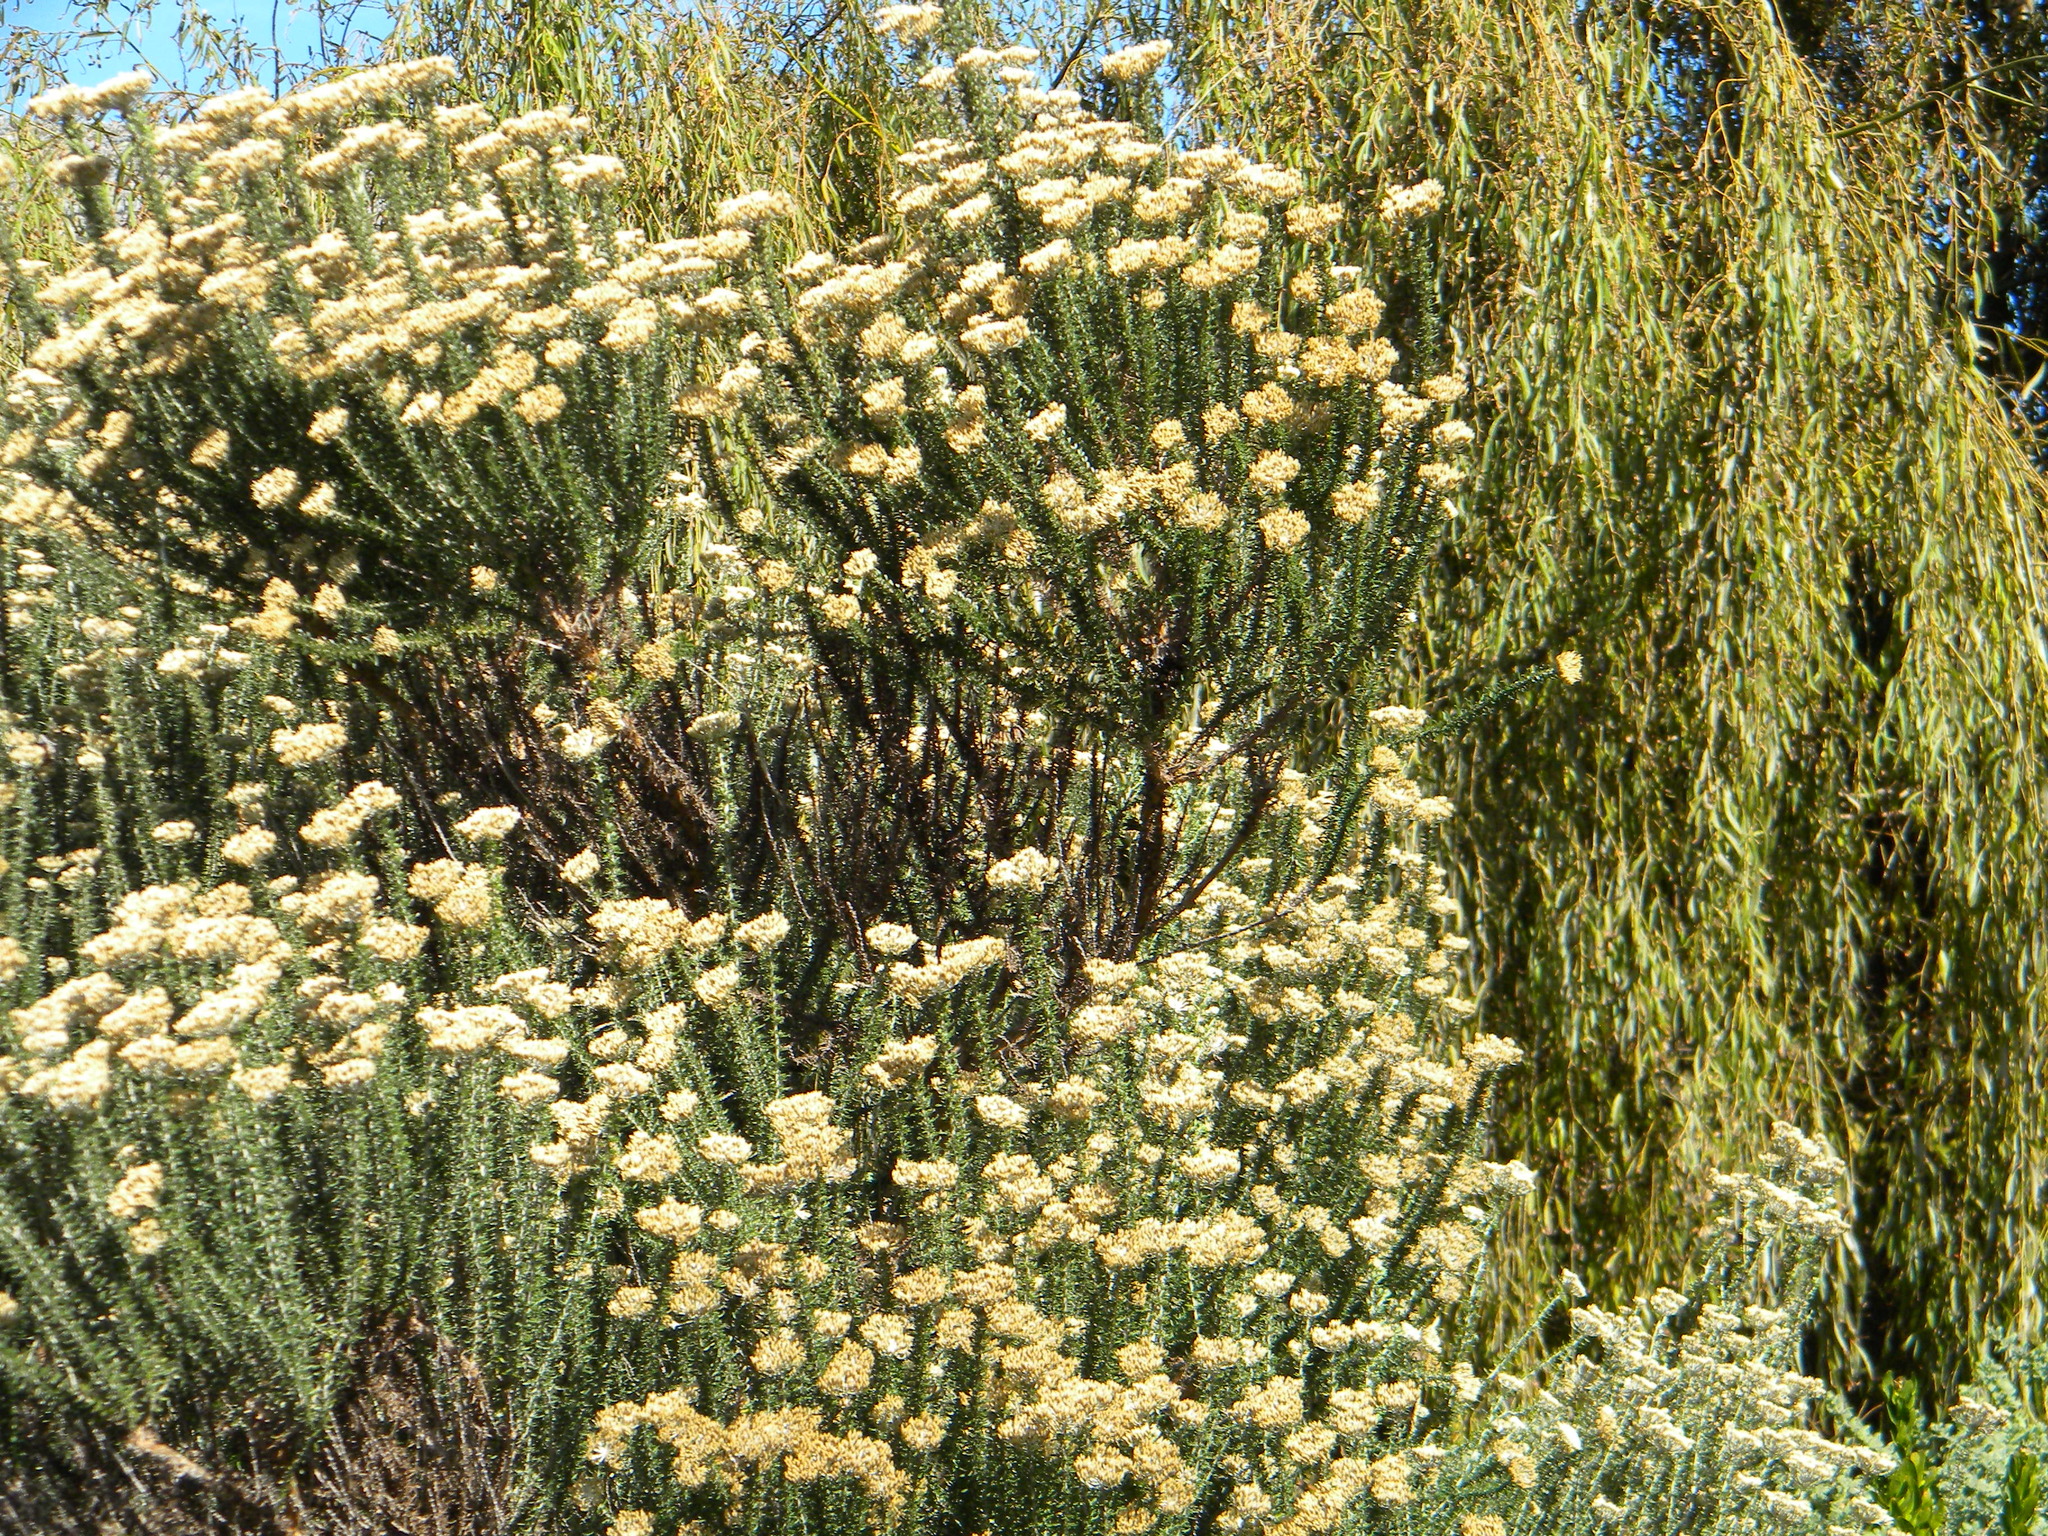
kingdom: Plantae
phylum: Tracheophyta
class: Magnoliopsida
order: Asterales
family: Asteraceae
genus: Metalasia
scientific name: Metalasia densa
